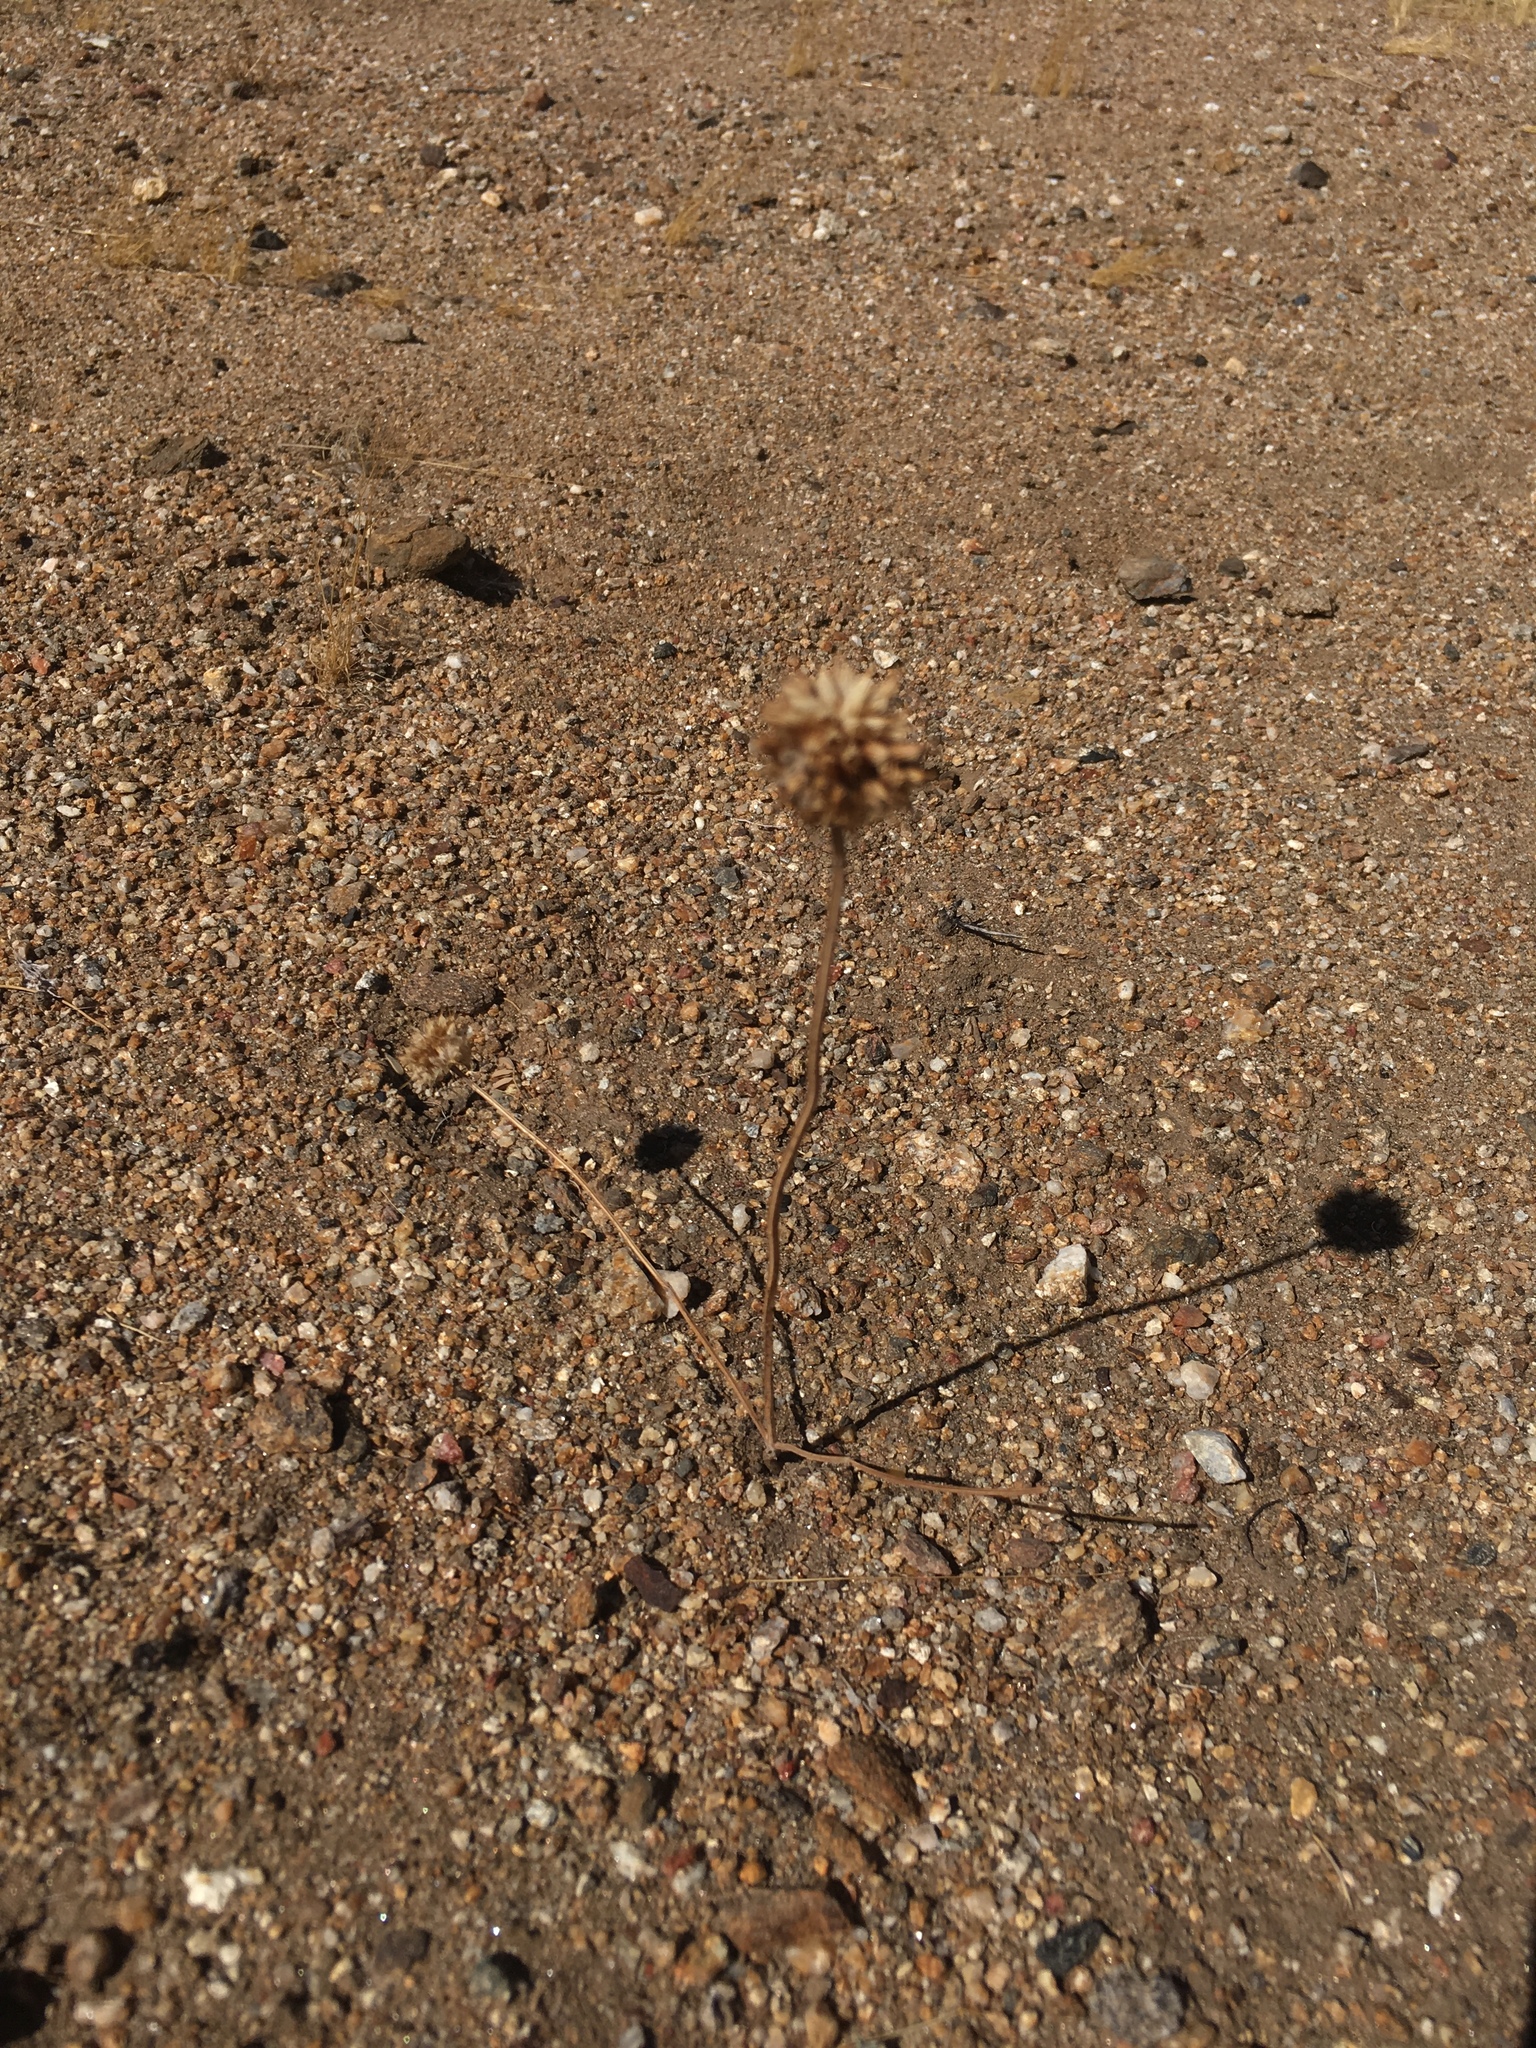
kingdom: Plantae
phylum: Tracheophyta
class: Magnoliopsida
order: Lamiales
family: Lamiaceae
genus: Salvia
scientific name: Salvia columbariae
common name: Chia
